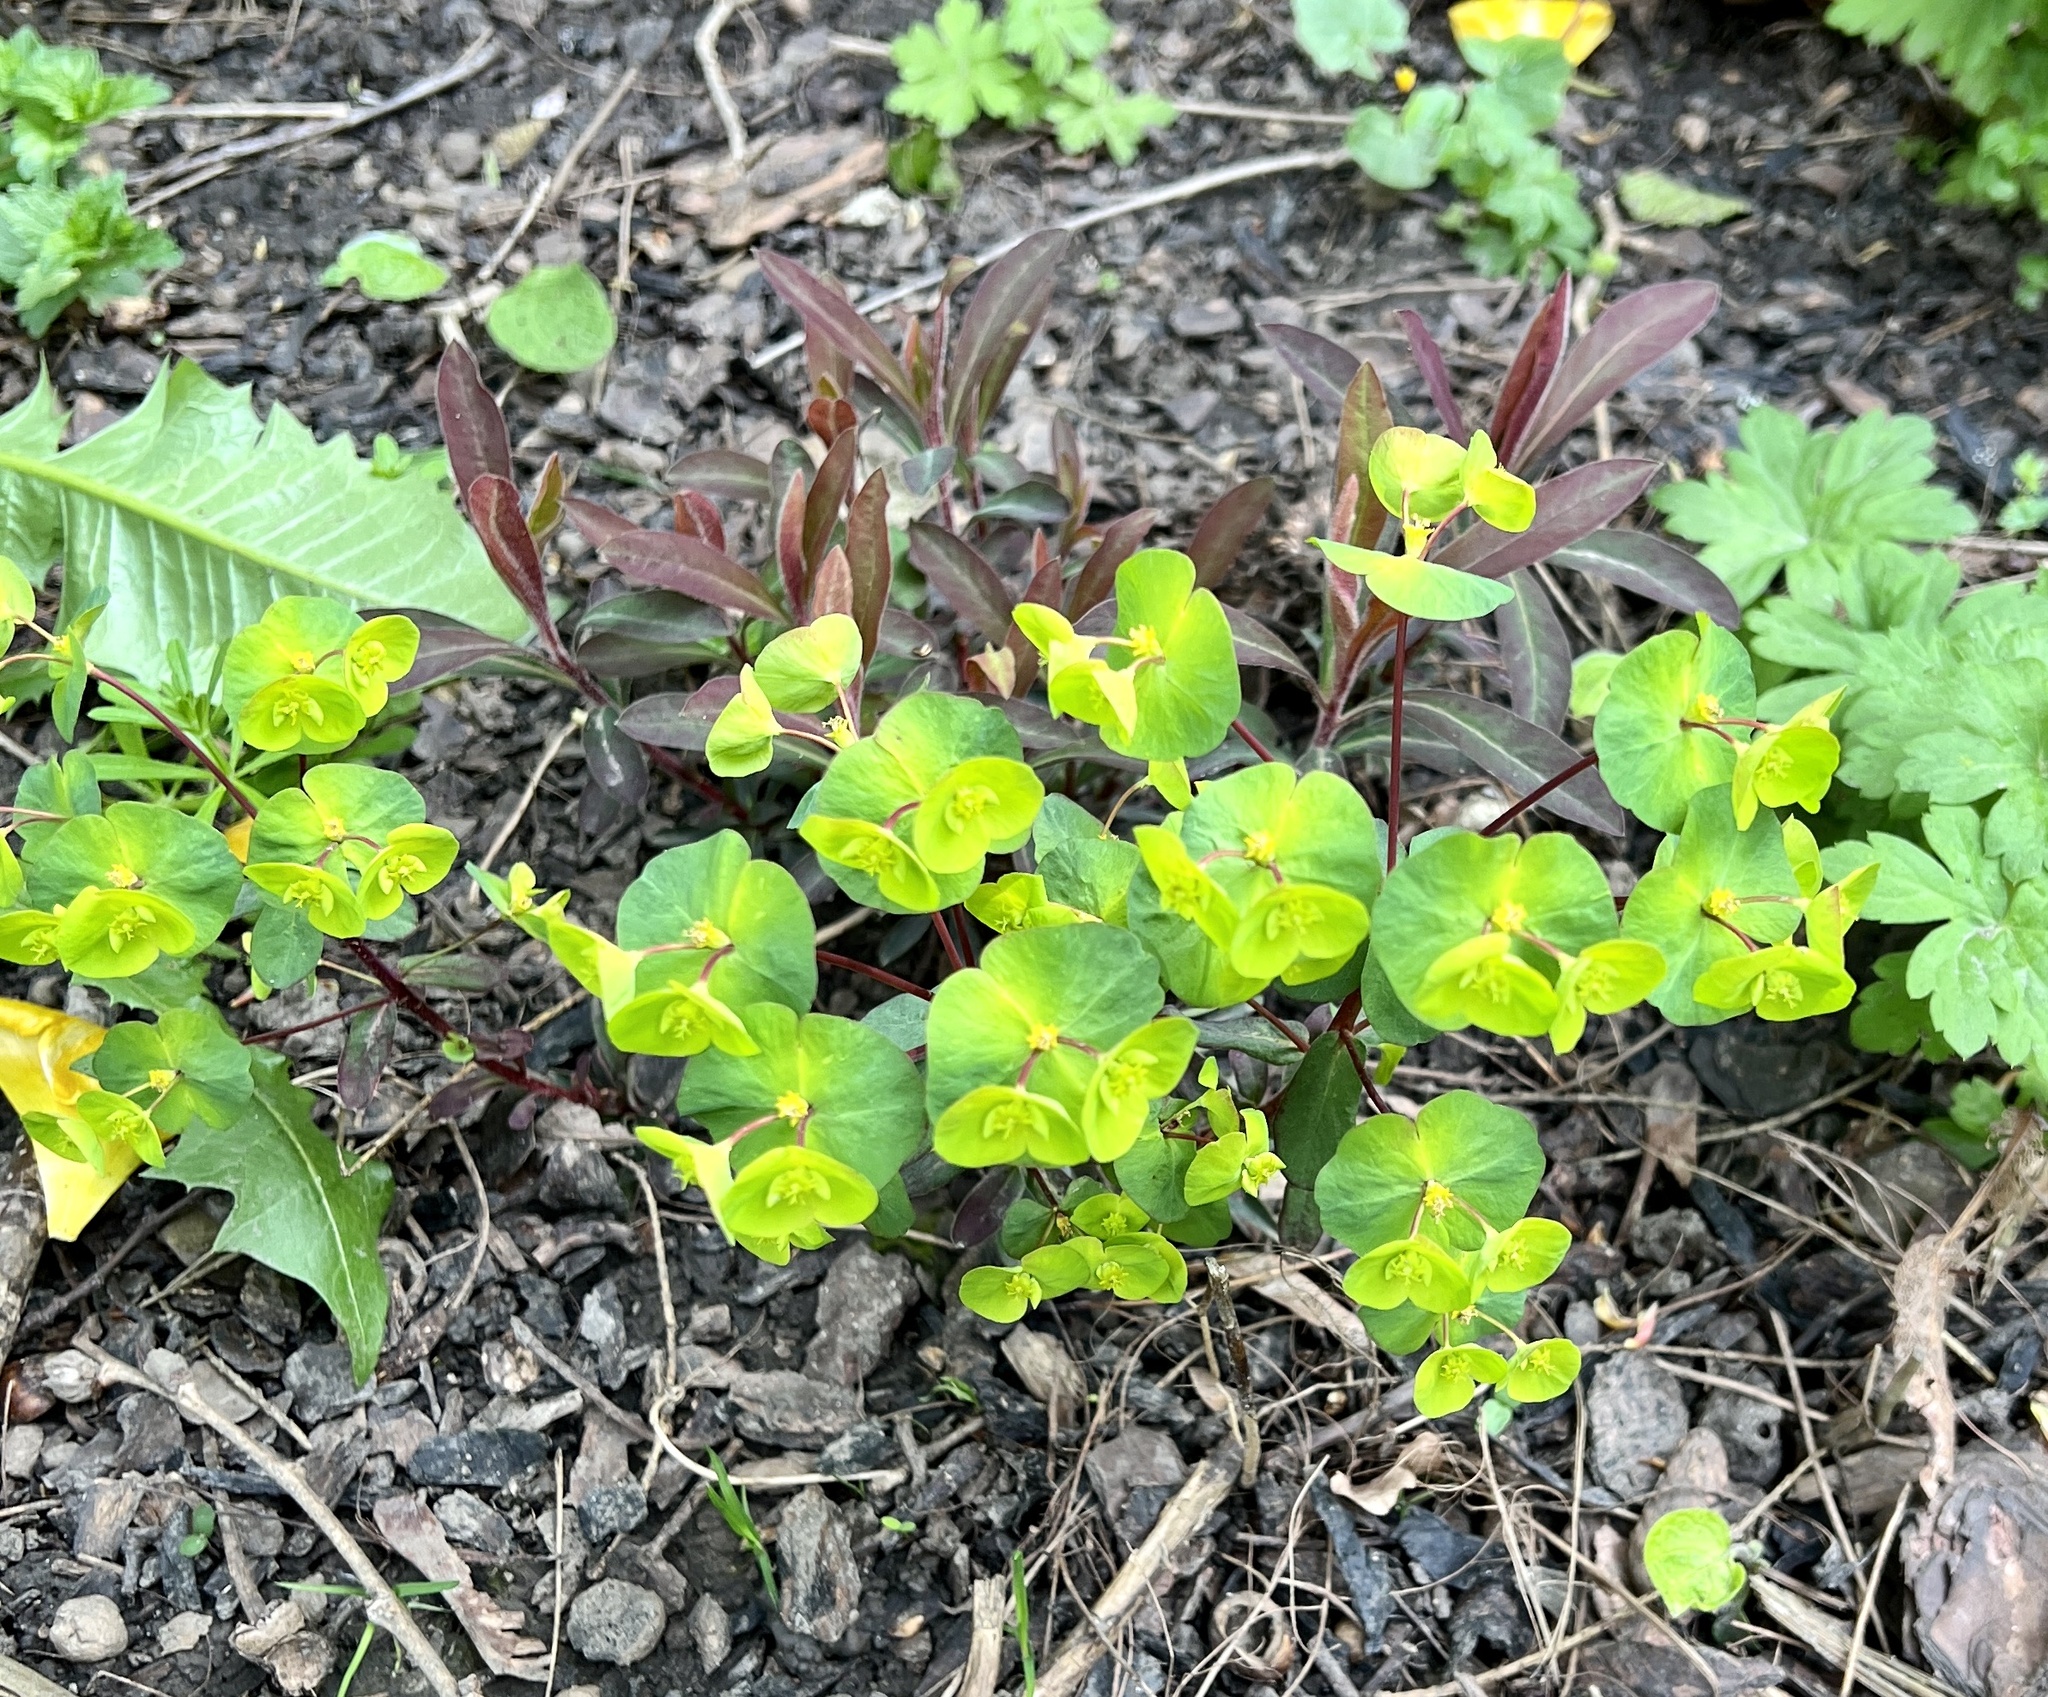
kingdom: Plantae
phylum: Tracheophyta
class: Magnoliopsida
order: Malpighiales
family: Euphorbiaceae
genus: Euphorbia
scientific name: Euphorbia amygdaloides
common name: Wood spurge
